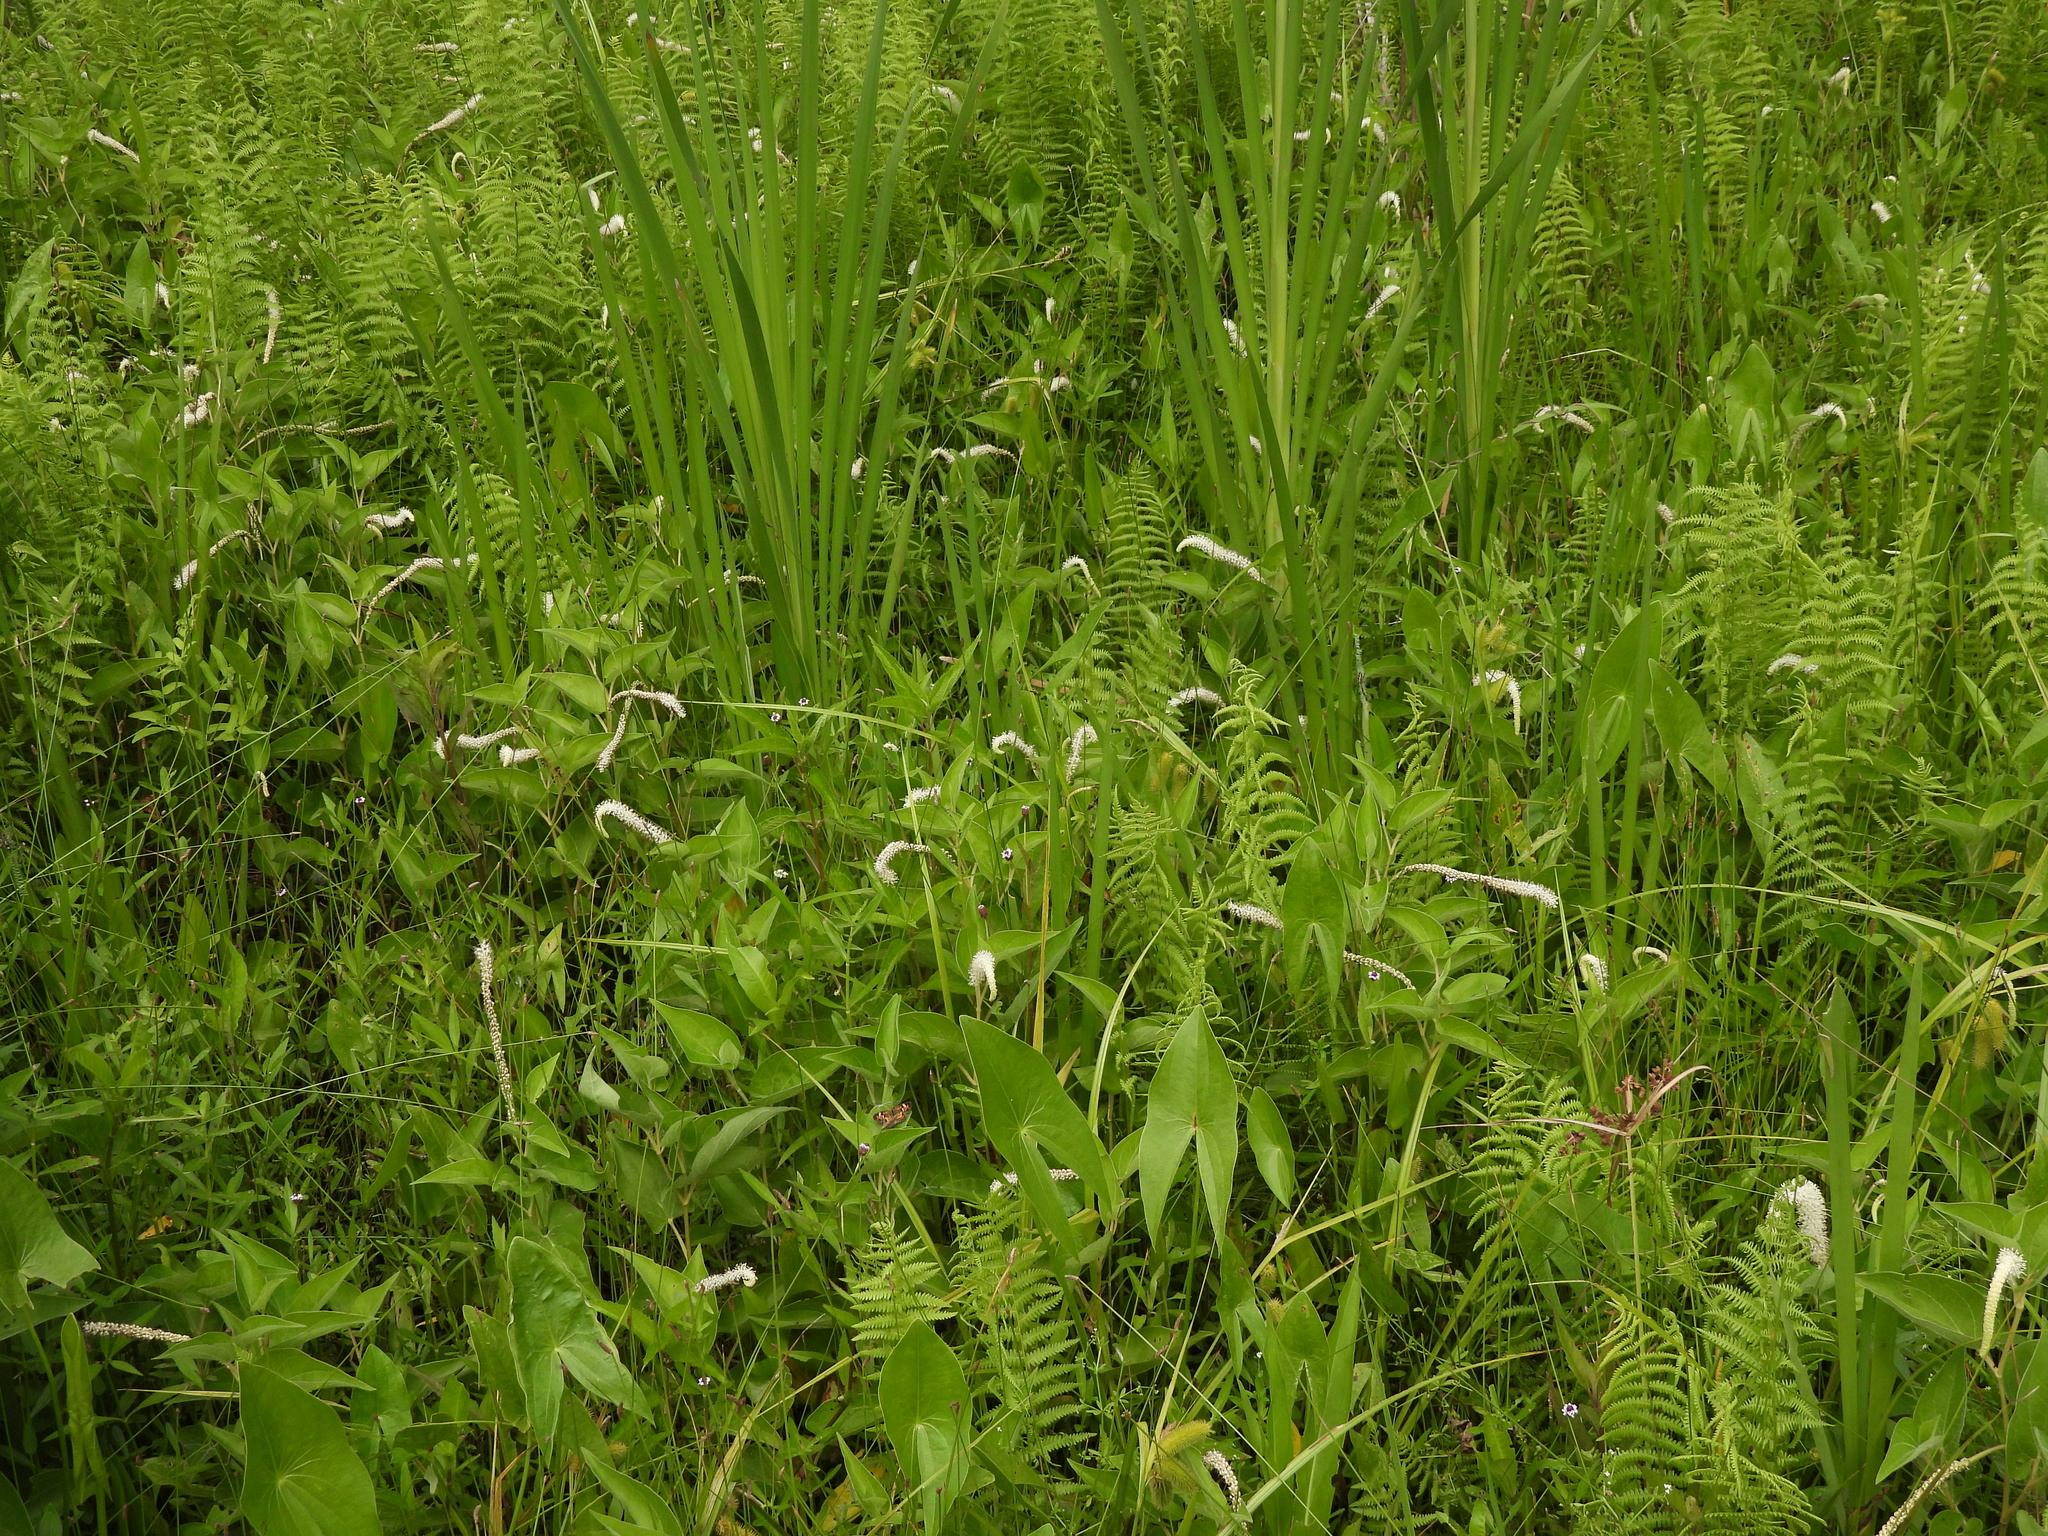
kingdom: Plantae
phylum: Tracheophyta
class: Magnoliopsida
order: Piperales
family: Saururaceae
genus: Saururus
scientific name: Saururus cernuus
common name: Lizard's-tail
